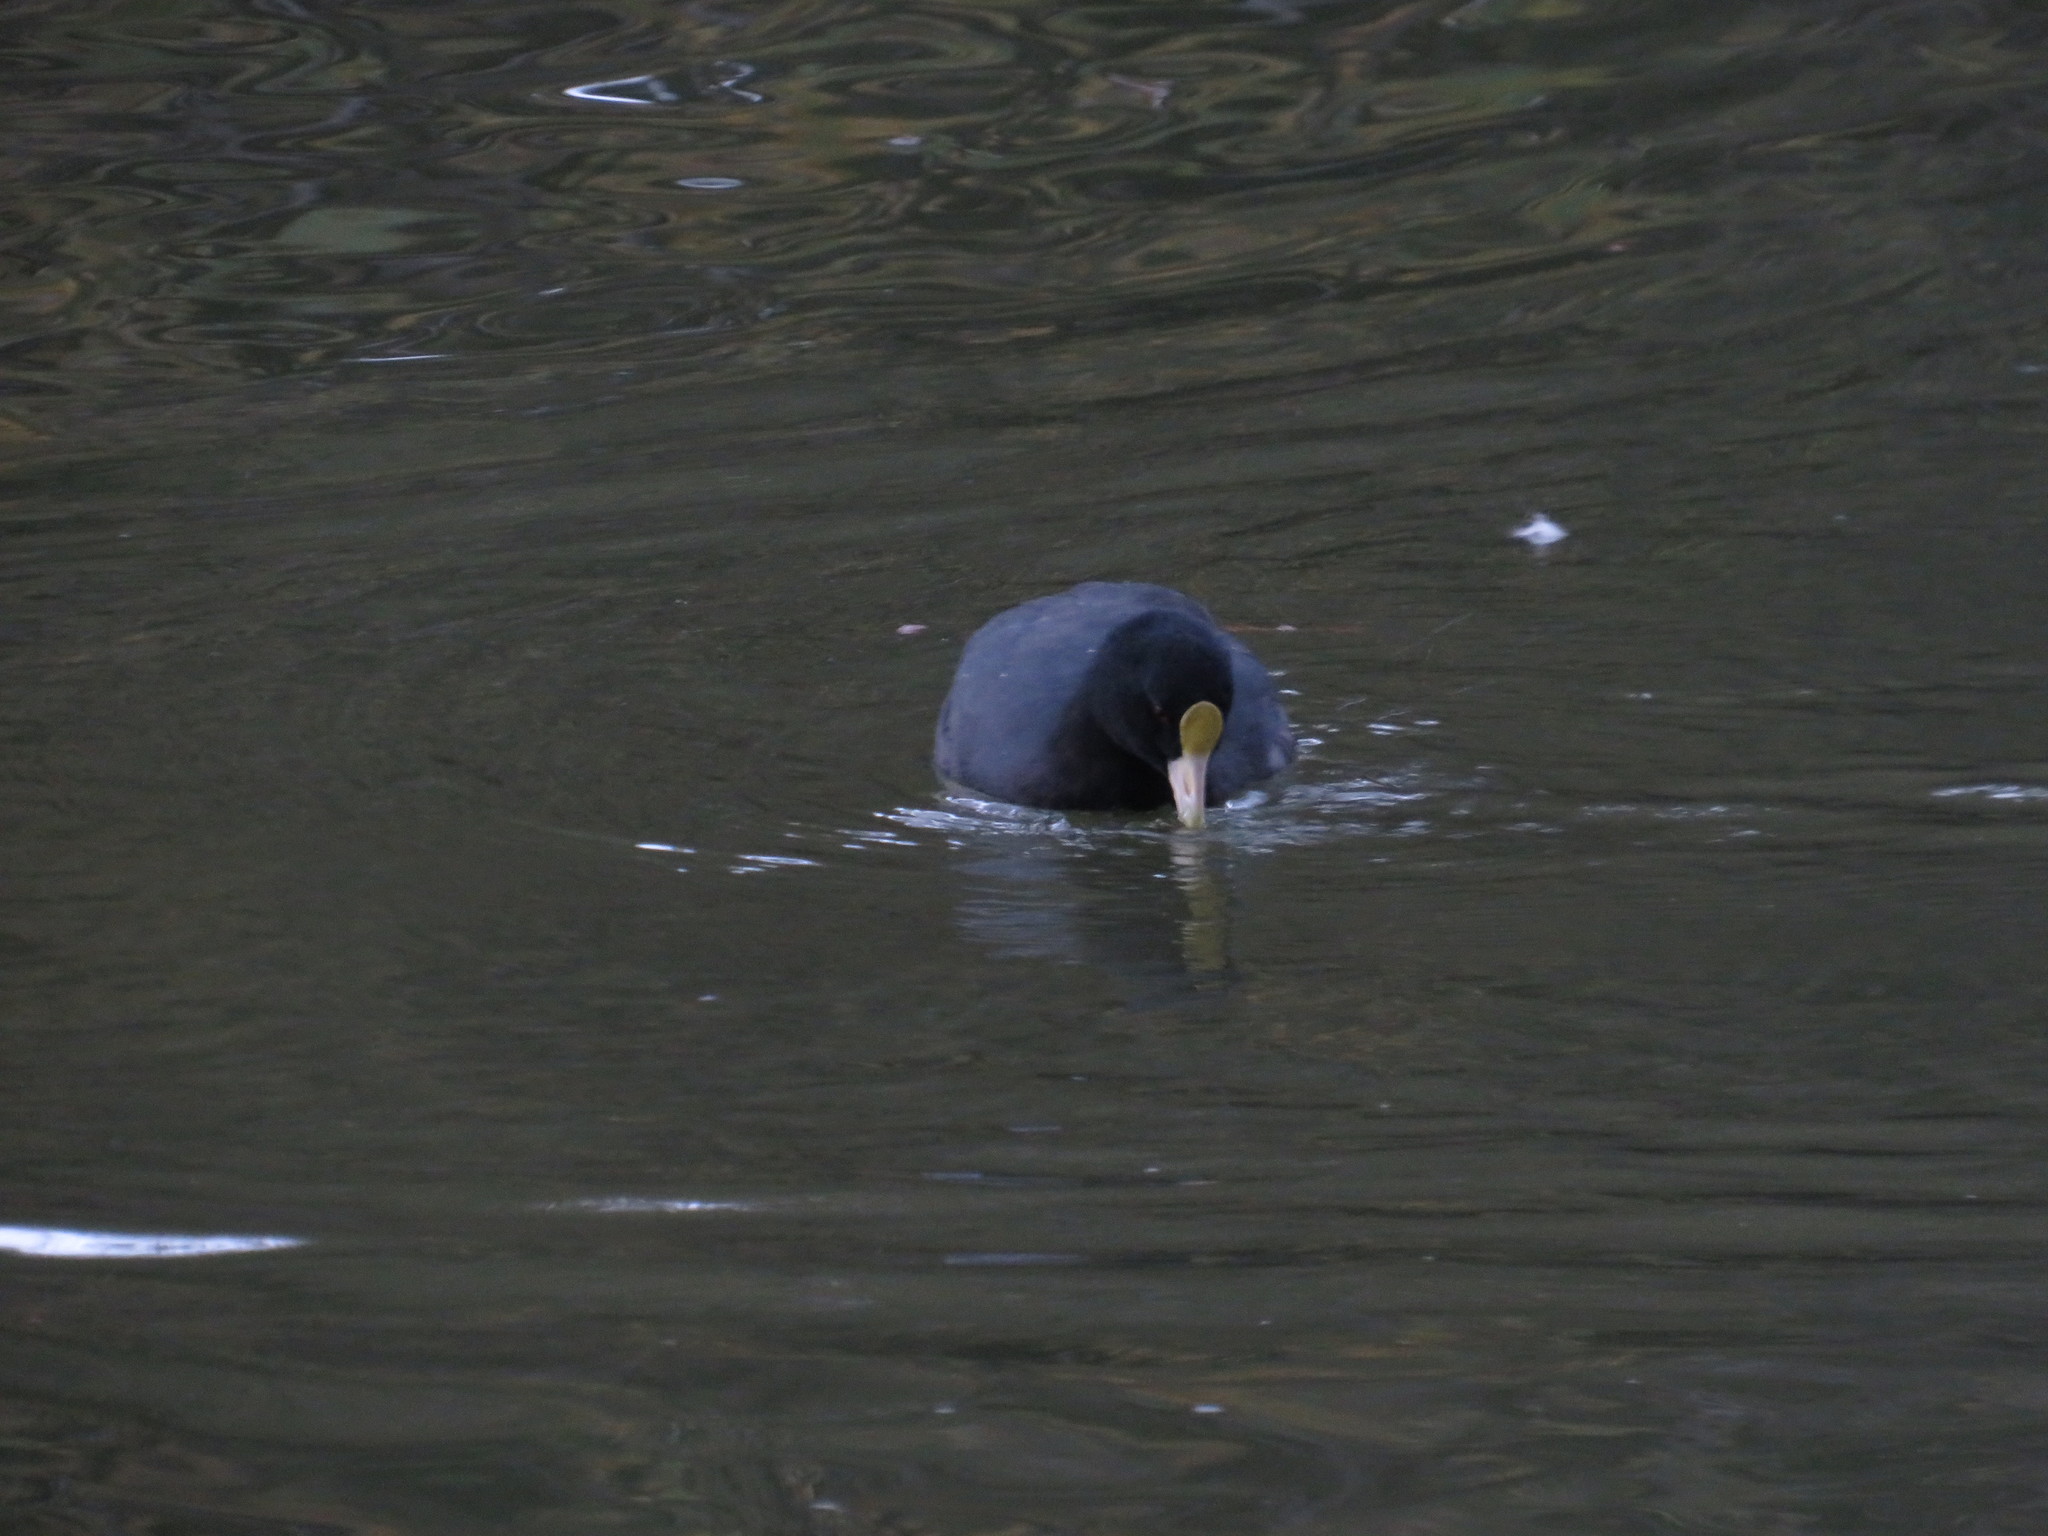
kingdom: Animalia
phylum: Chordata
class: Aves
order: Gruiformes
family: Rallidae
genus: Fulica
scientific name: Fulica leucoptera
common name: White-winged coot
